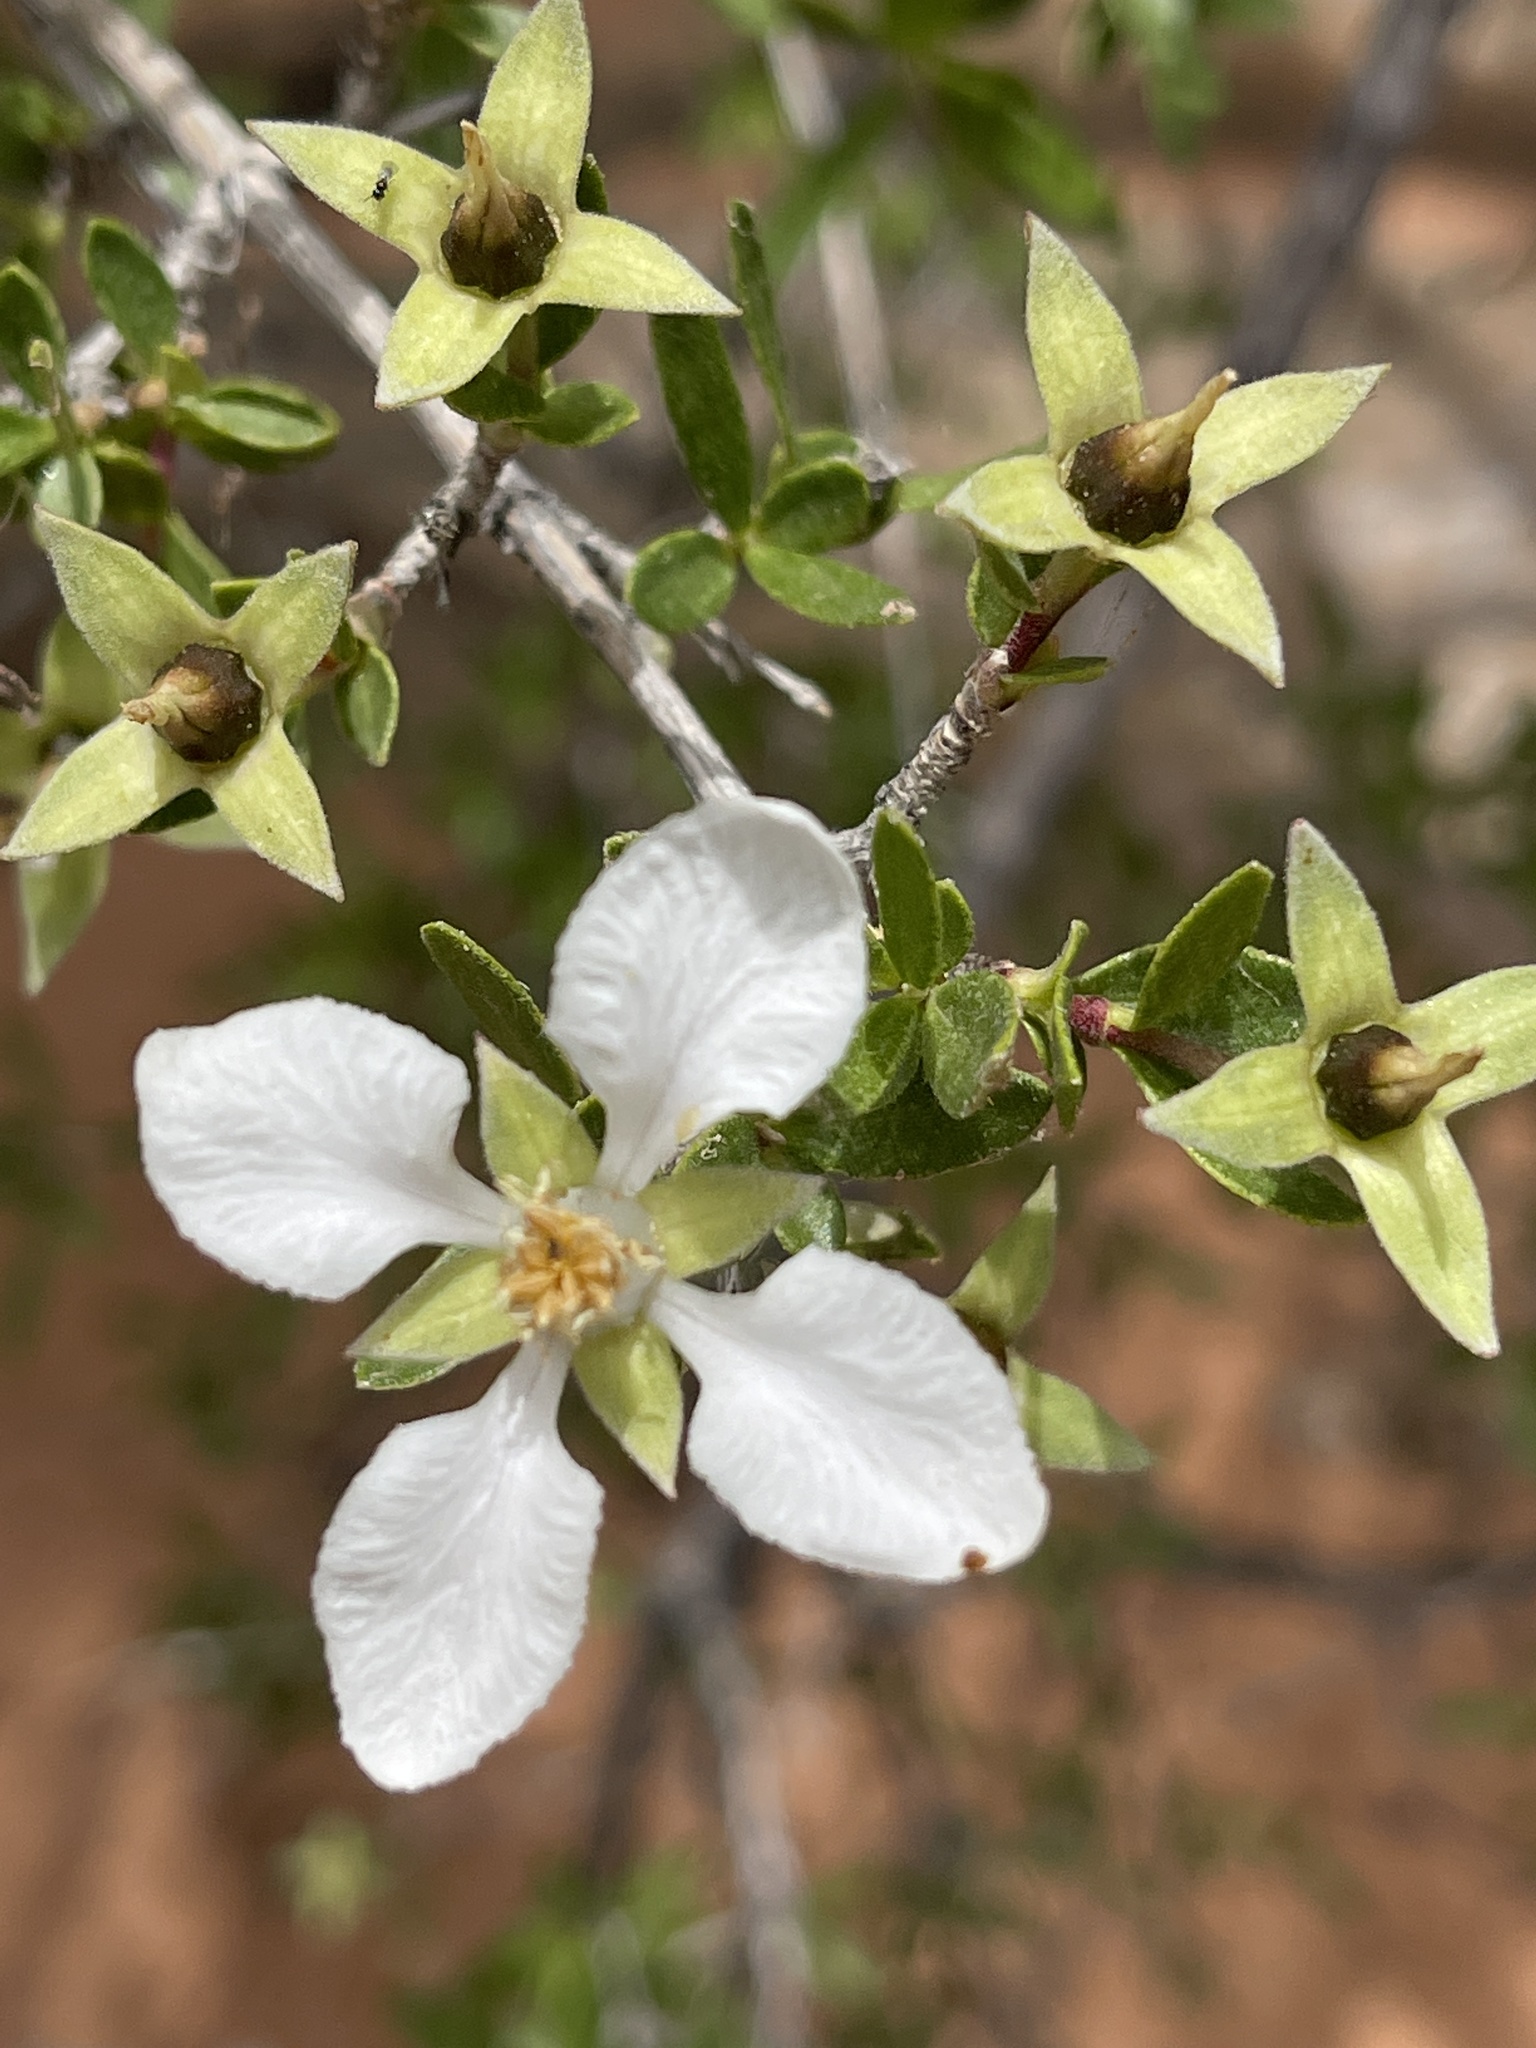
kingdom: Plantae
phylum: Tracheophyta
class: Magnoliopsida
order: Cornales
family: Hydrangeaceae
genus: Fendlera
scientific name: Fendlera rupicola
